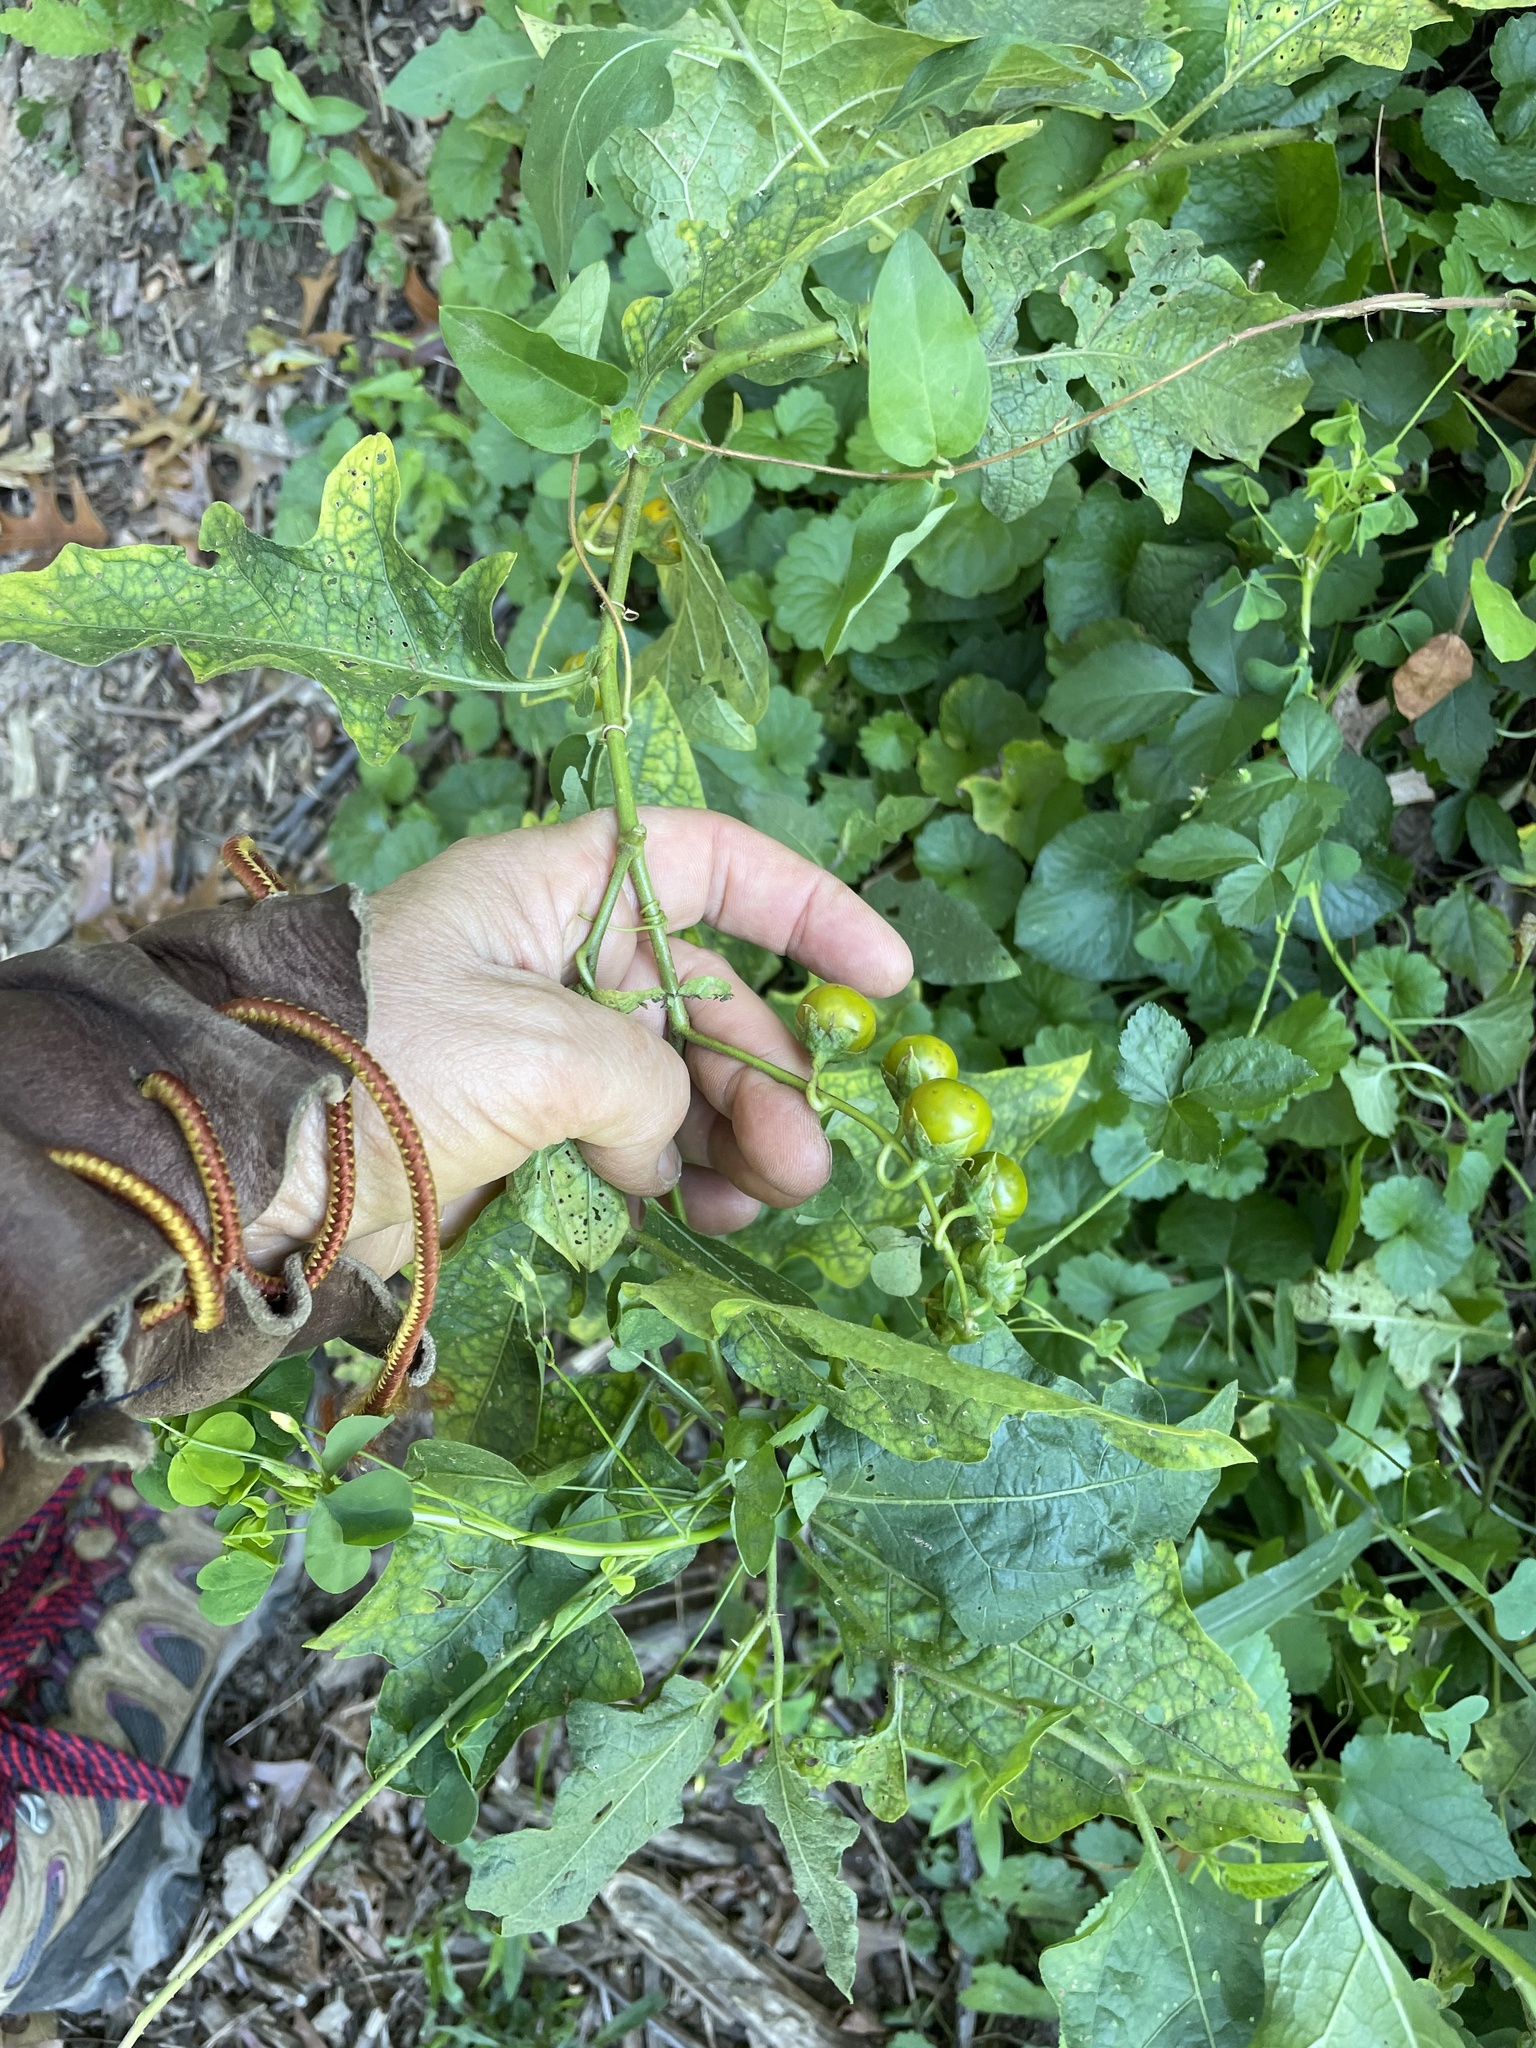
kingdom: Plantae
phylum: Tracheophyta
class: Magnoliopsida
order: Solanales
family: Solanaceae
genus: Solanum
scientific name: Solanum carolinense
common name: Horse-nettle
